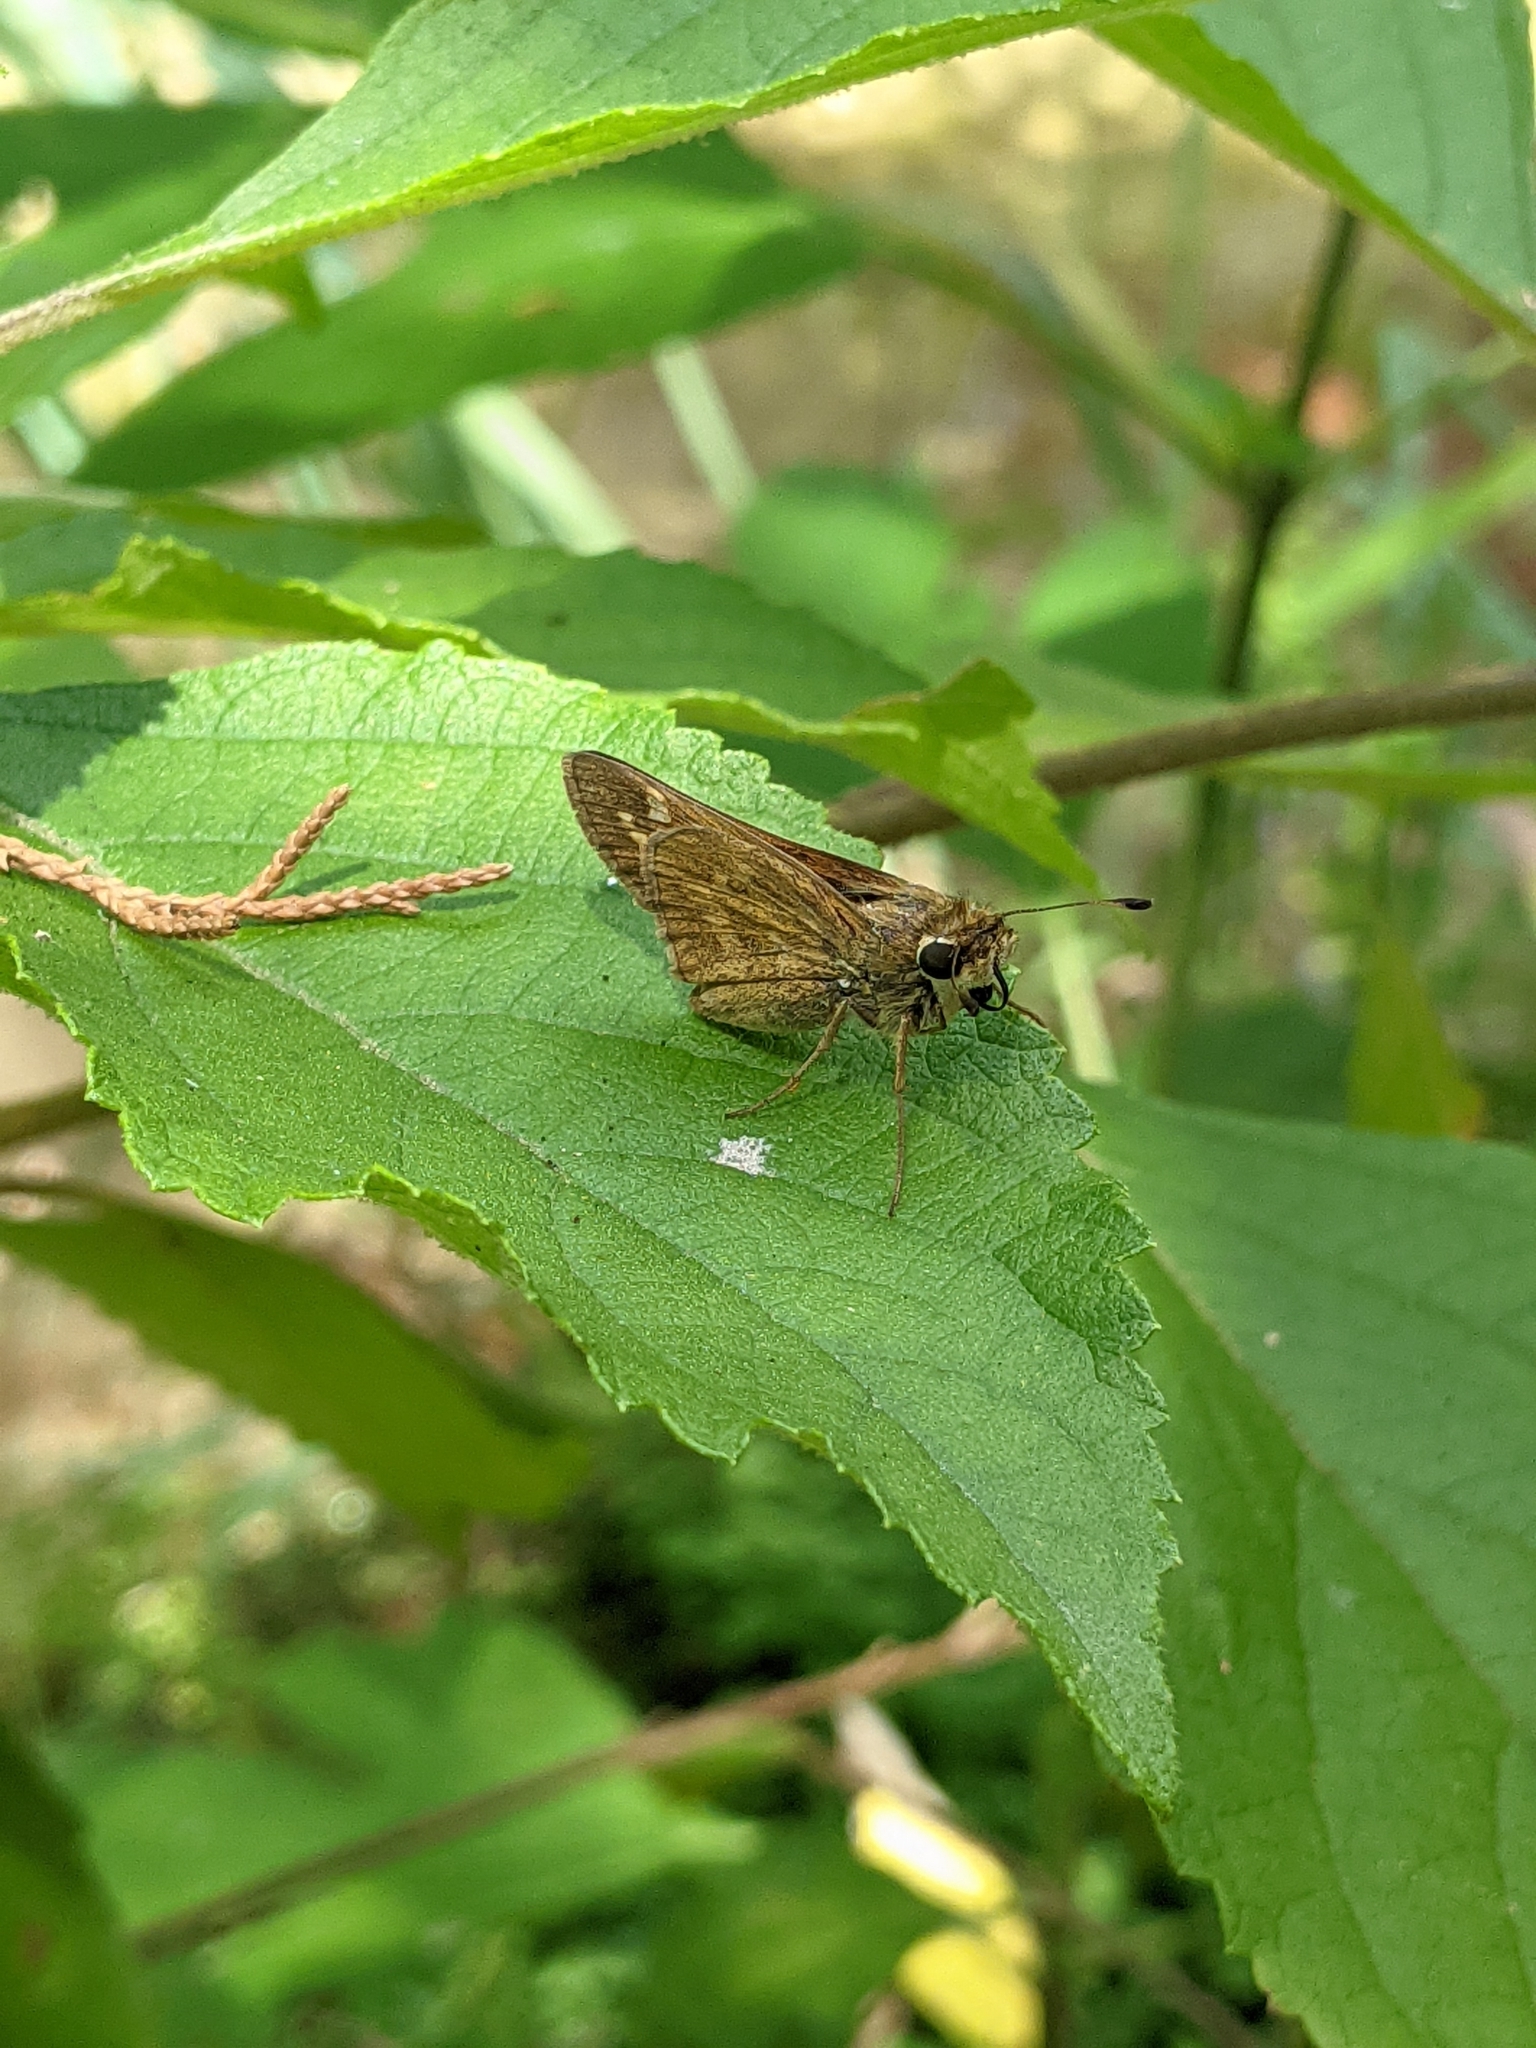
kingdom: Animalia
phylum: Arthropoda
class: Insecta
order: Lepidoptera
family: Hesperiidae
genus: Atalopedes
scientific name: Atalopedes
